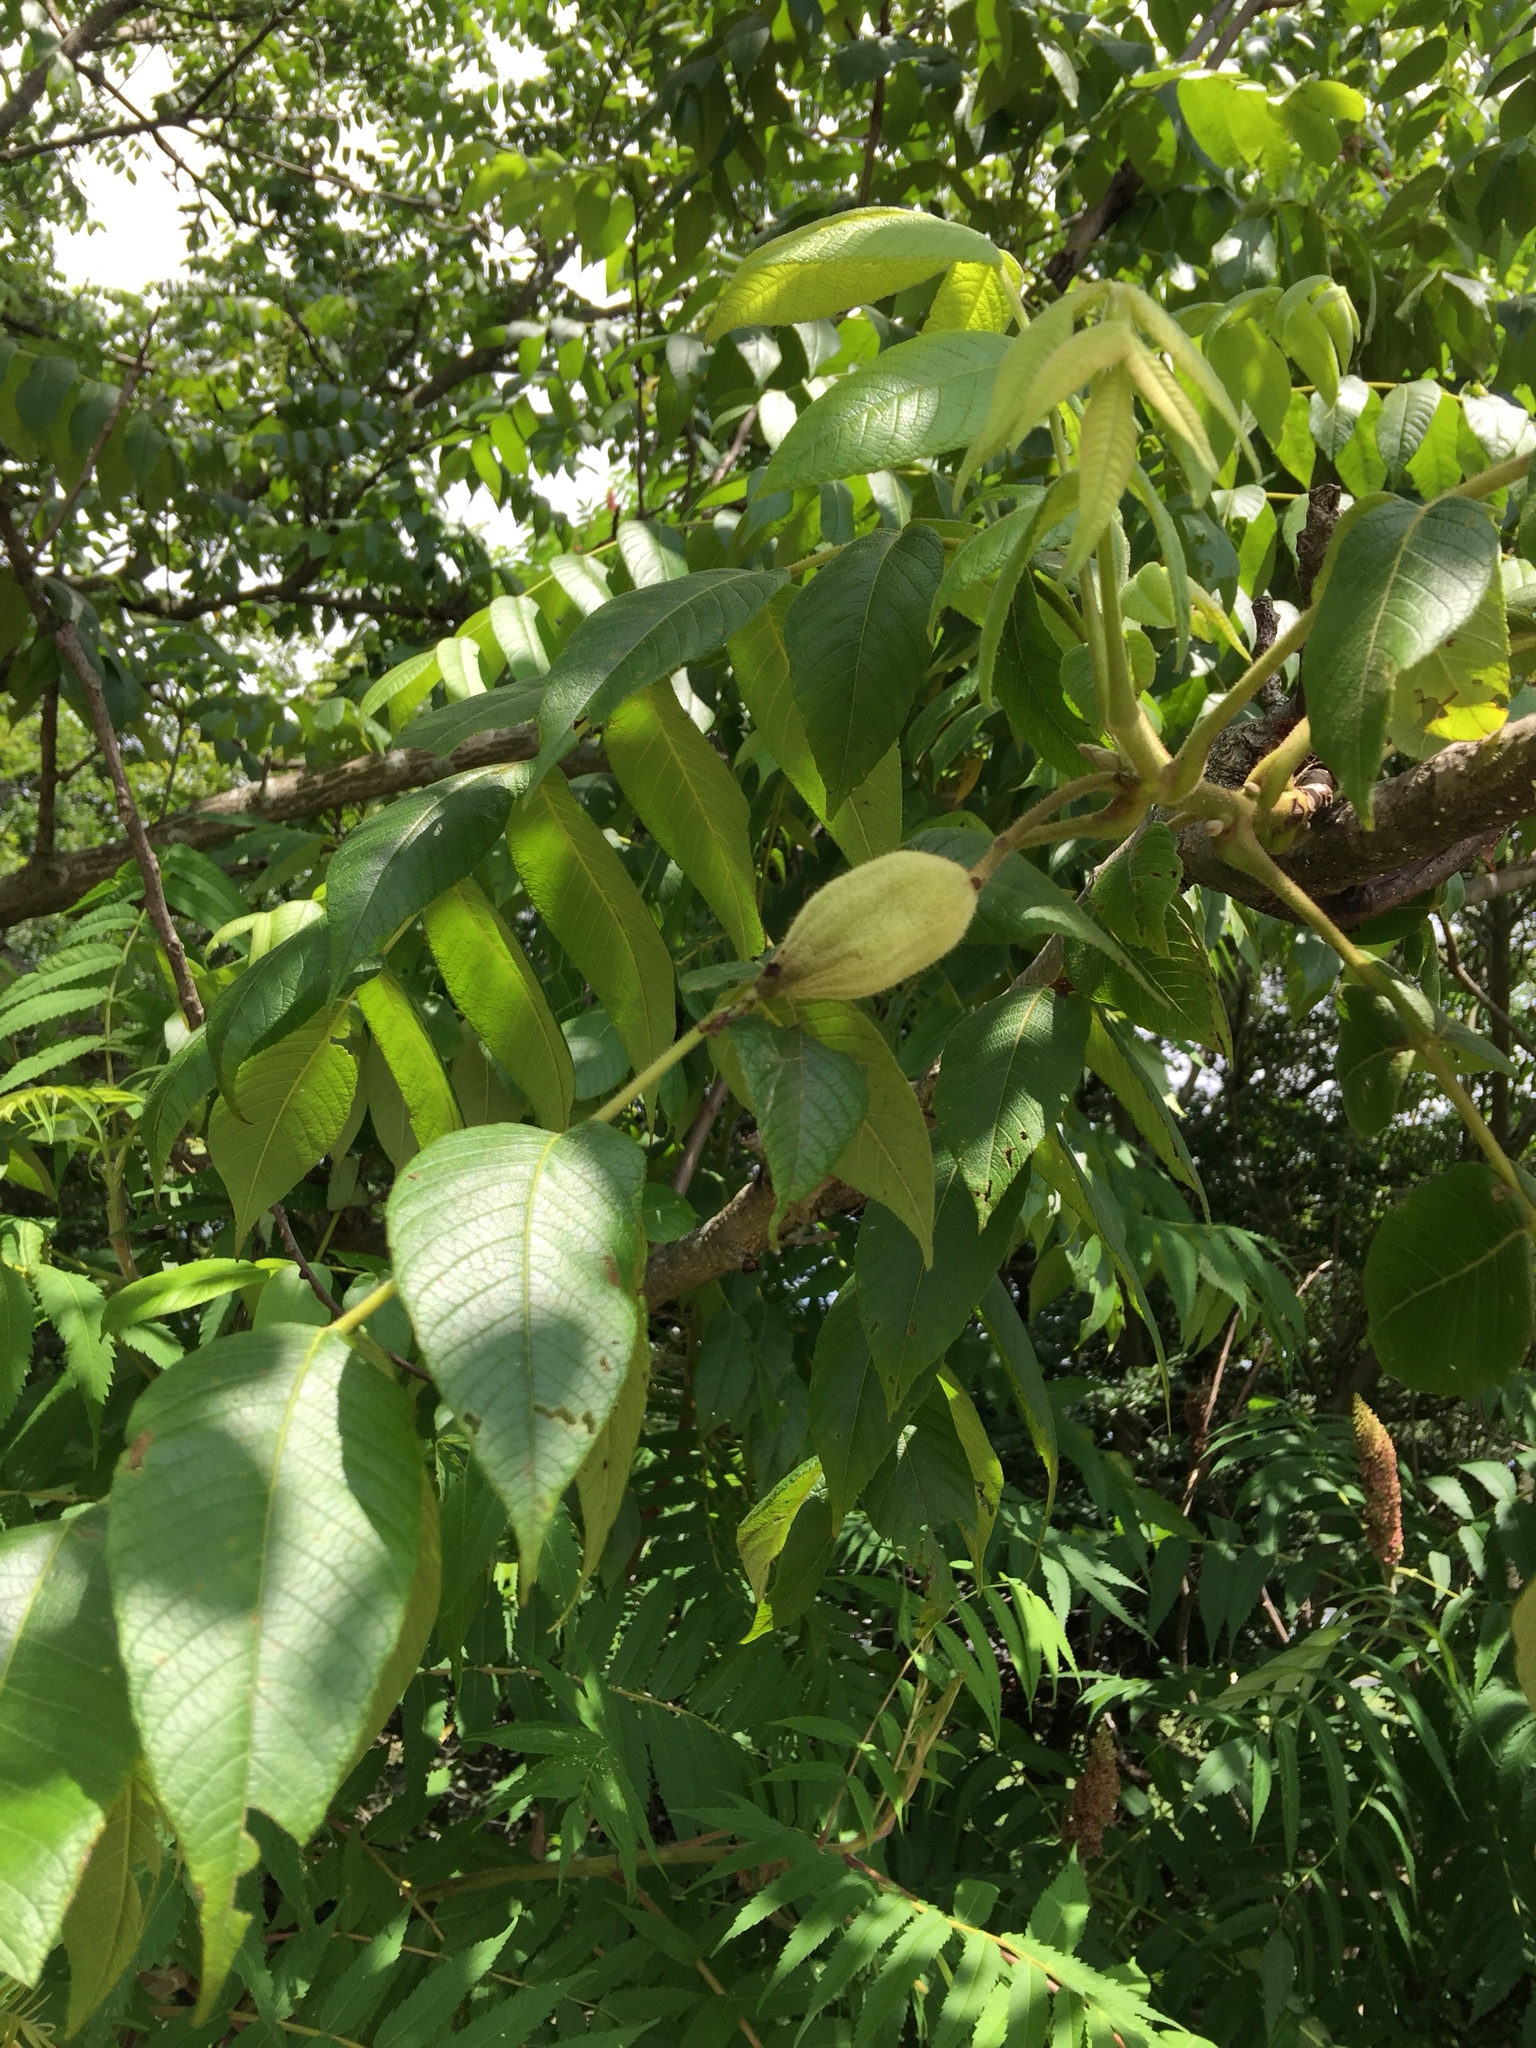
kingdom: Plantae
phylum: Tracheophyta
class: Magnoliopsida
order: Fagales
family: Juglandaceae
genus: Juglans
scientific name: Juglans cinerea
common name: Butternut
